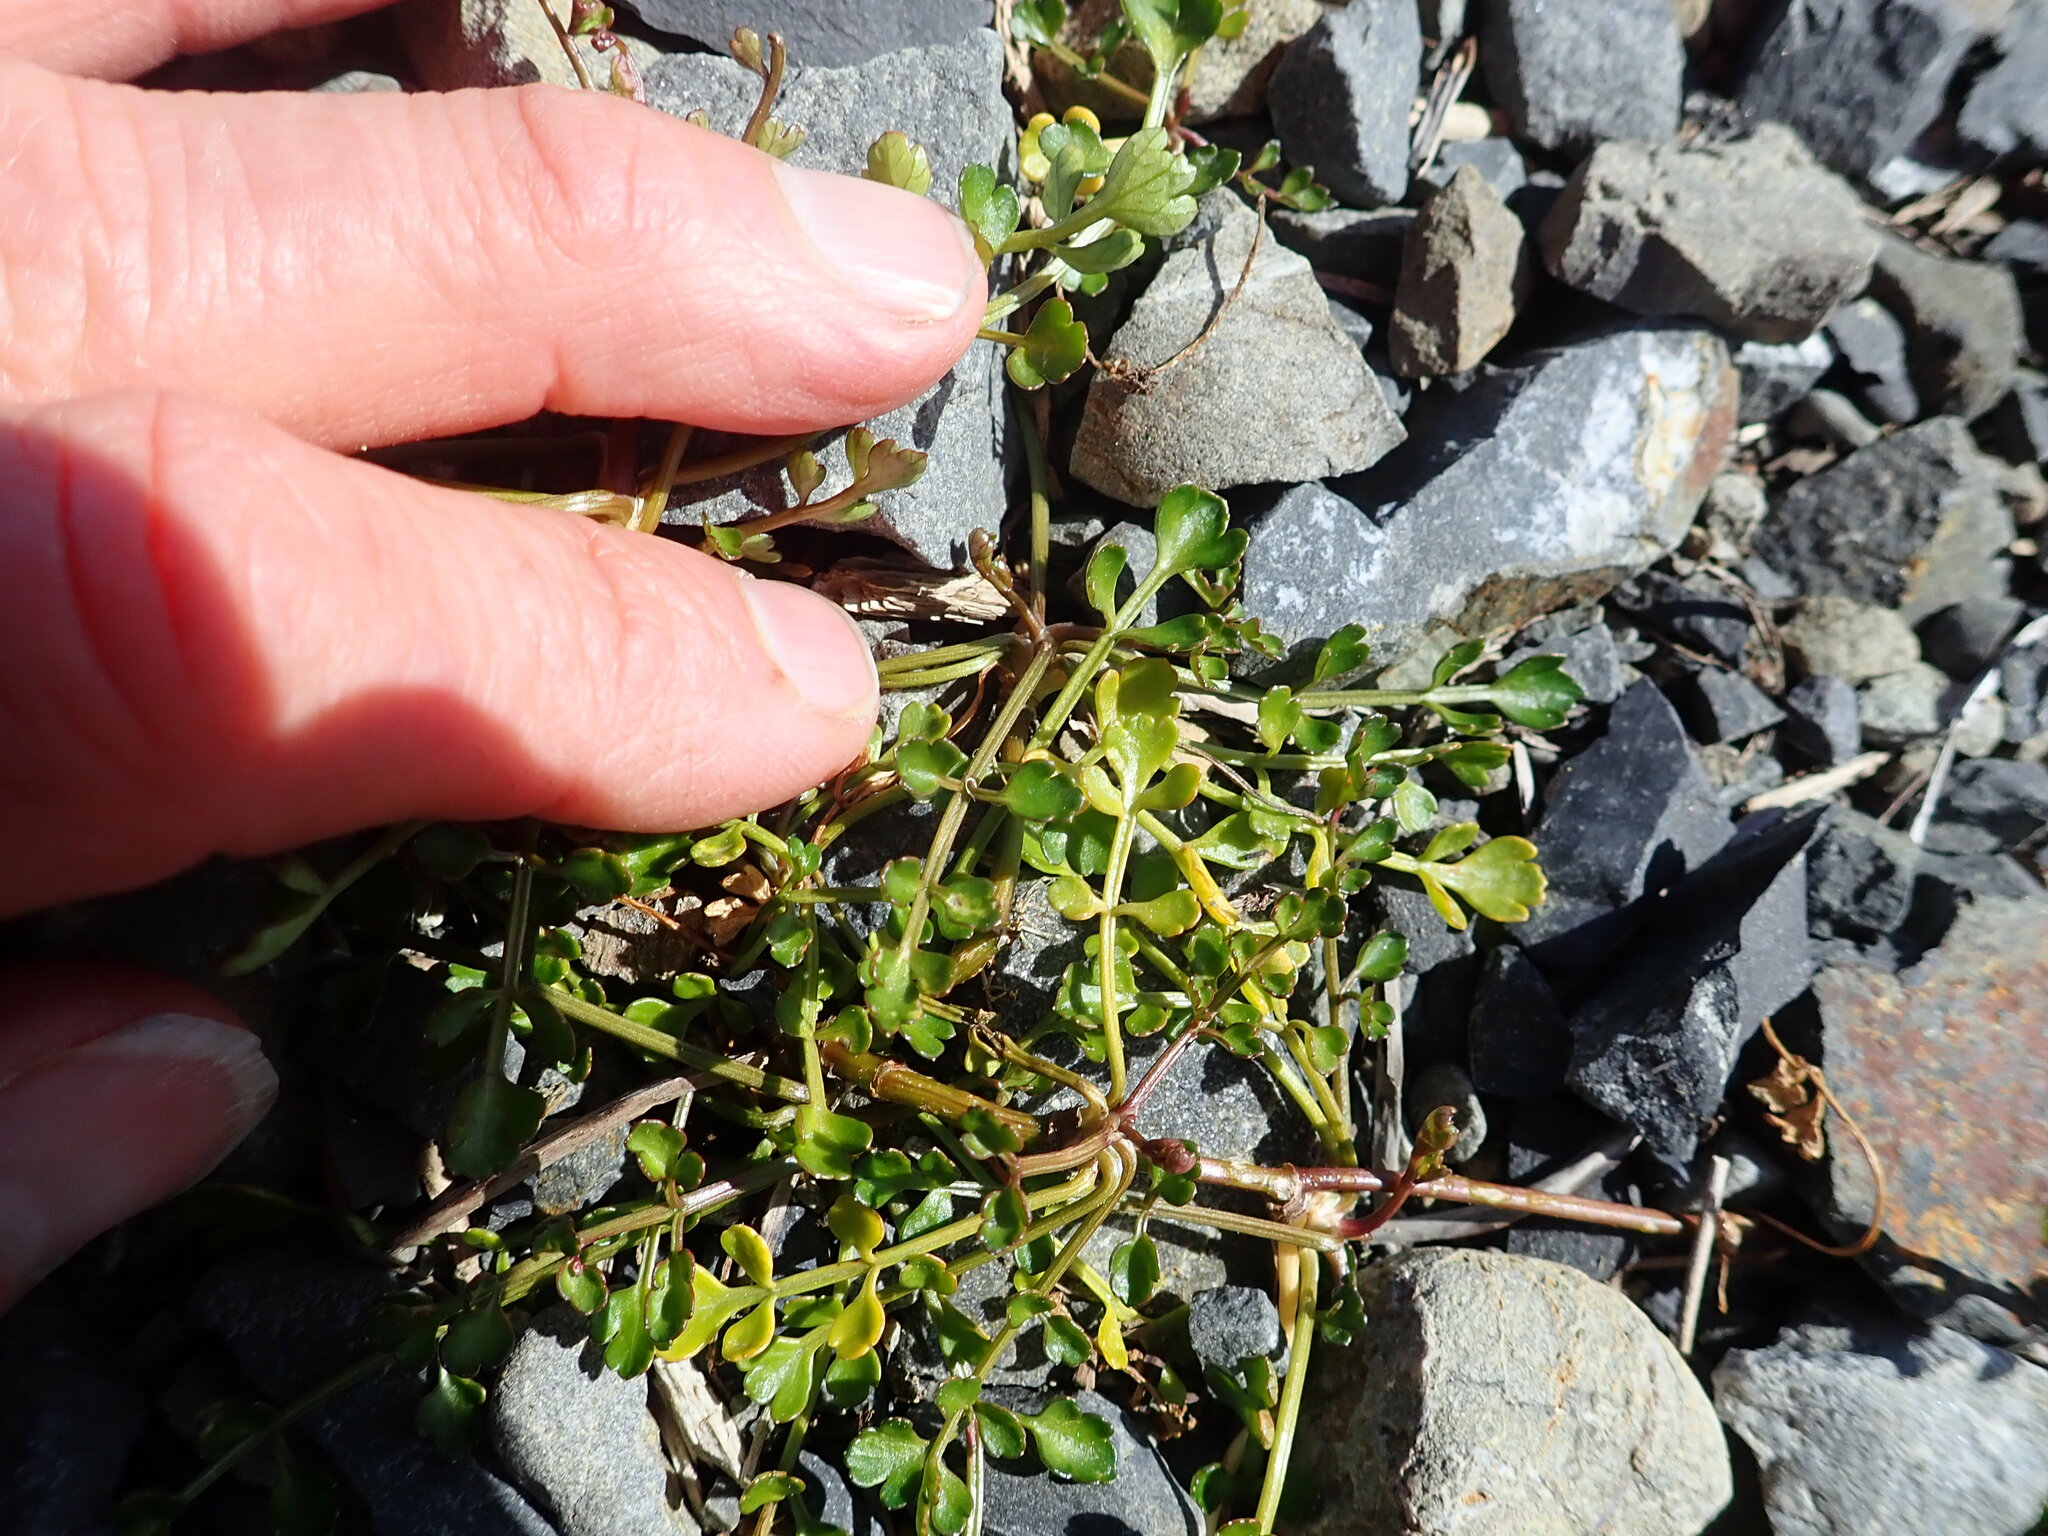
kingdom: Plantae
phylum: Tracheophyta
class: Magnoliopsida
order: Apiales
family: Apiaceae
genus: Apium
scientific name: Apium prostratum
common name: Prostrate marshwort
